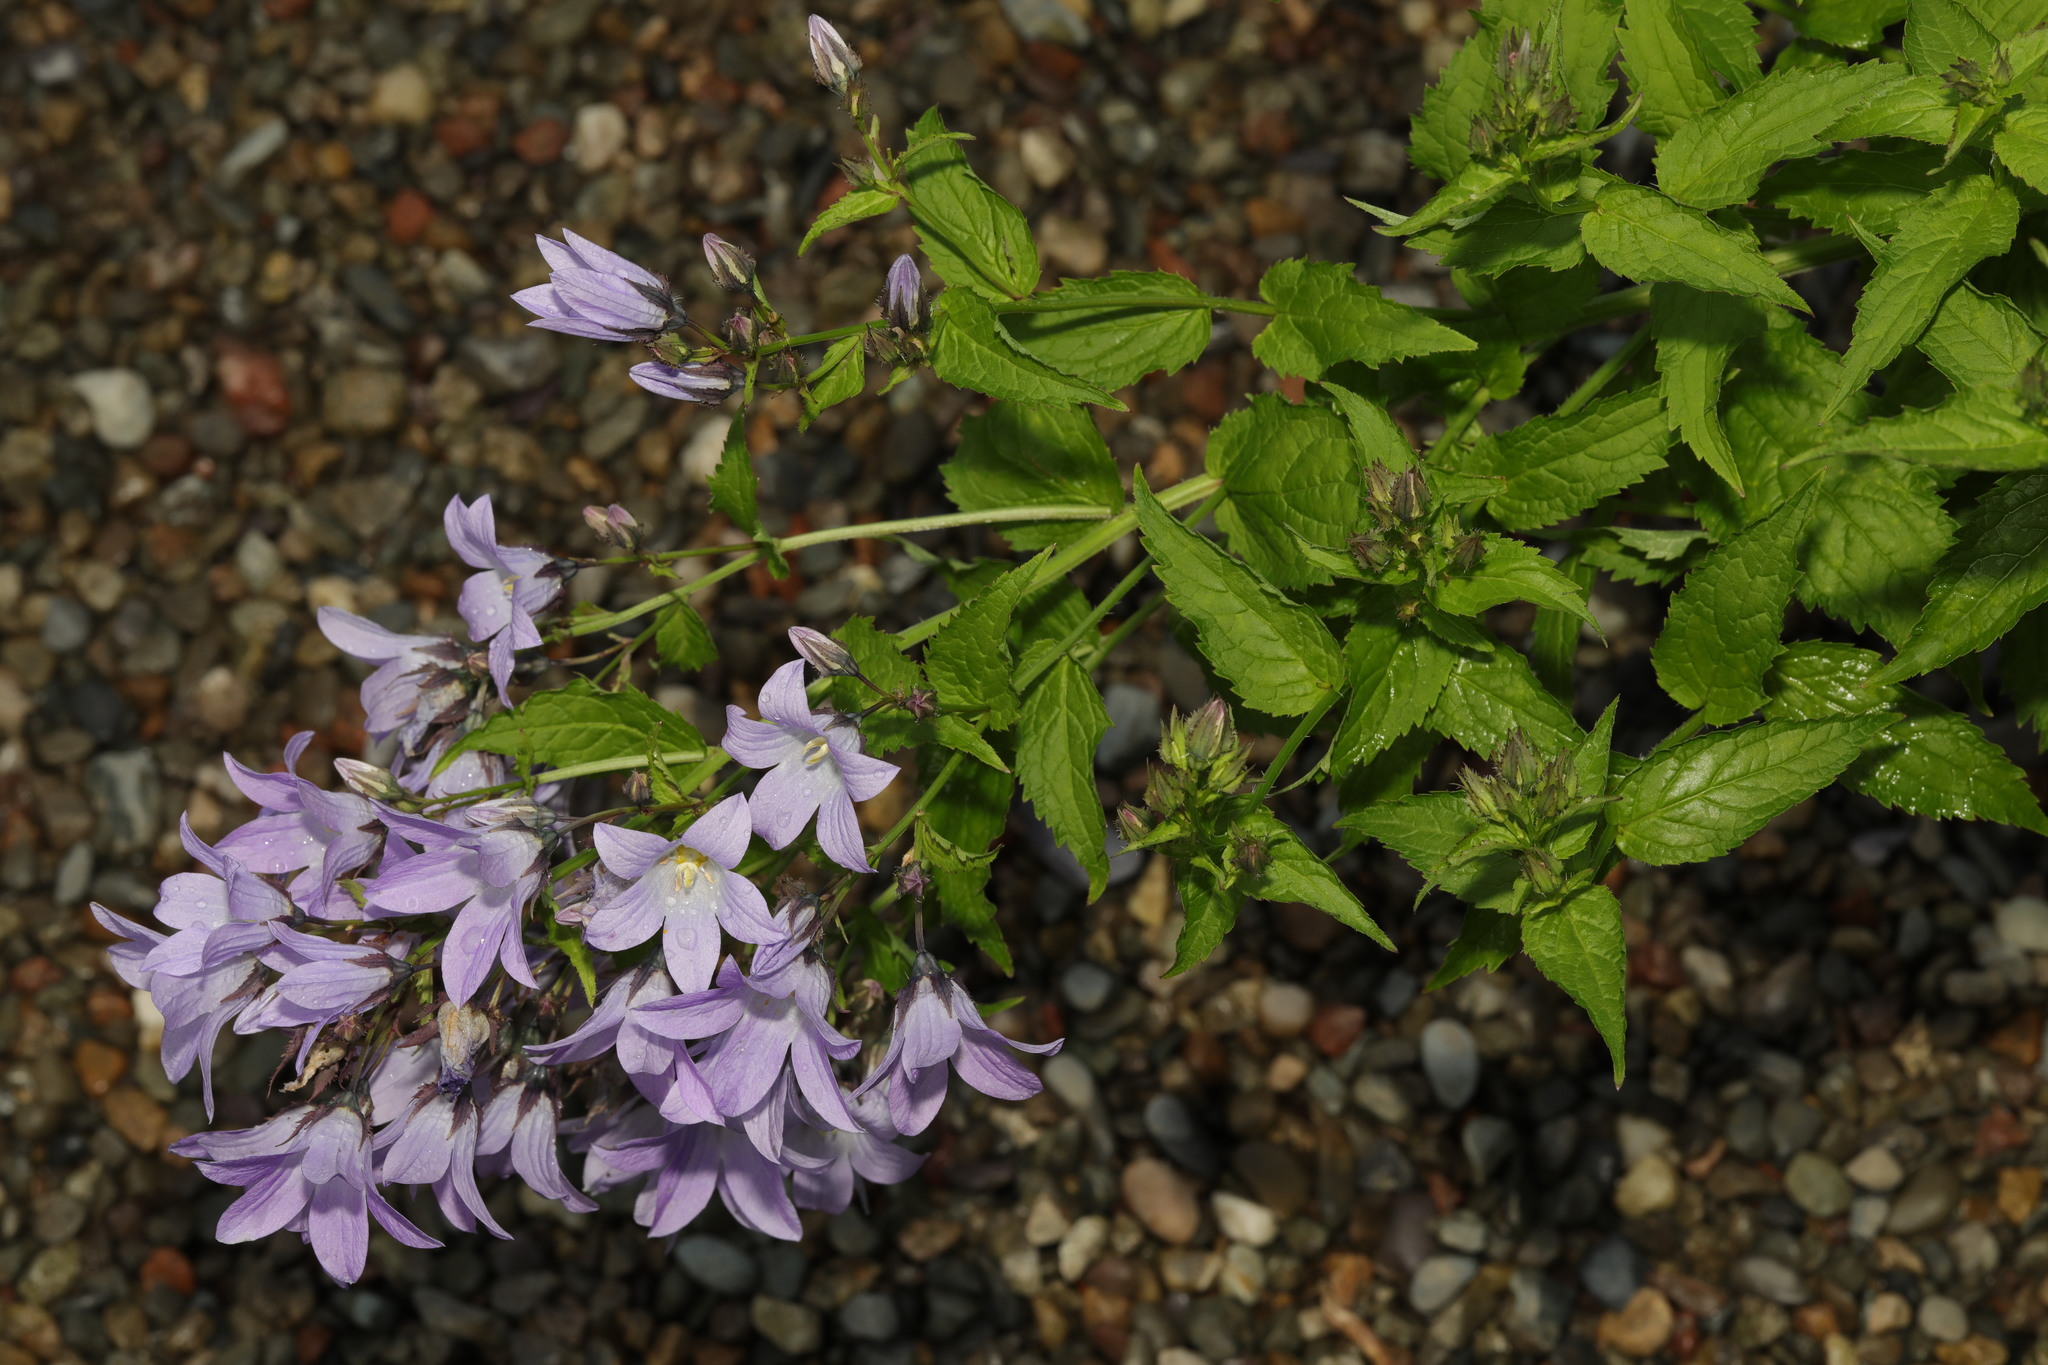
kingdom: Plantae
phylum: Tracheophyta
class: Magnoliopsida
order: Asterales
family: Campanulaceae
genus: Campanula
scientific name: Campanula lactiflora
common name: Milky bellflower
